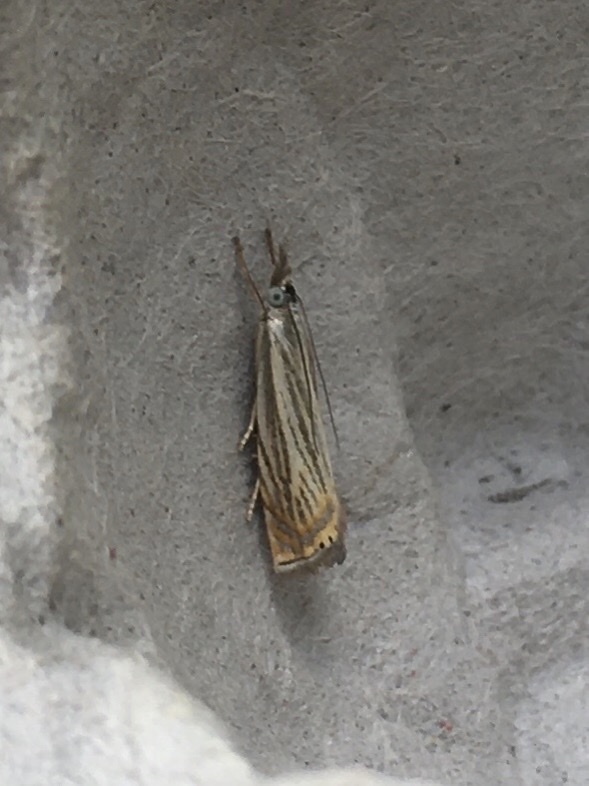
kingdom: Animalia
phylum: Arthropoda
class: Insecta
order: Lepidoptera
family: Crambidae
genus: Chrysoteuchia
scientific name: Chrysoteuchia topiarius
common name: Topiary grass-veneer
